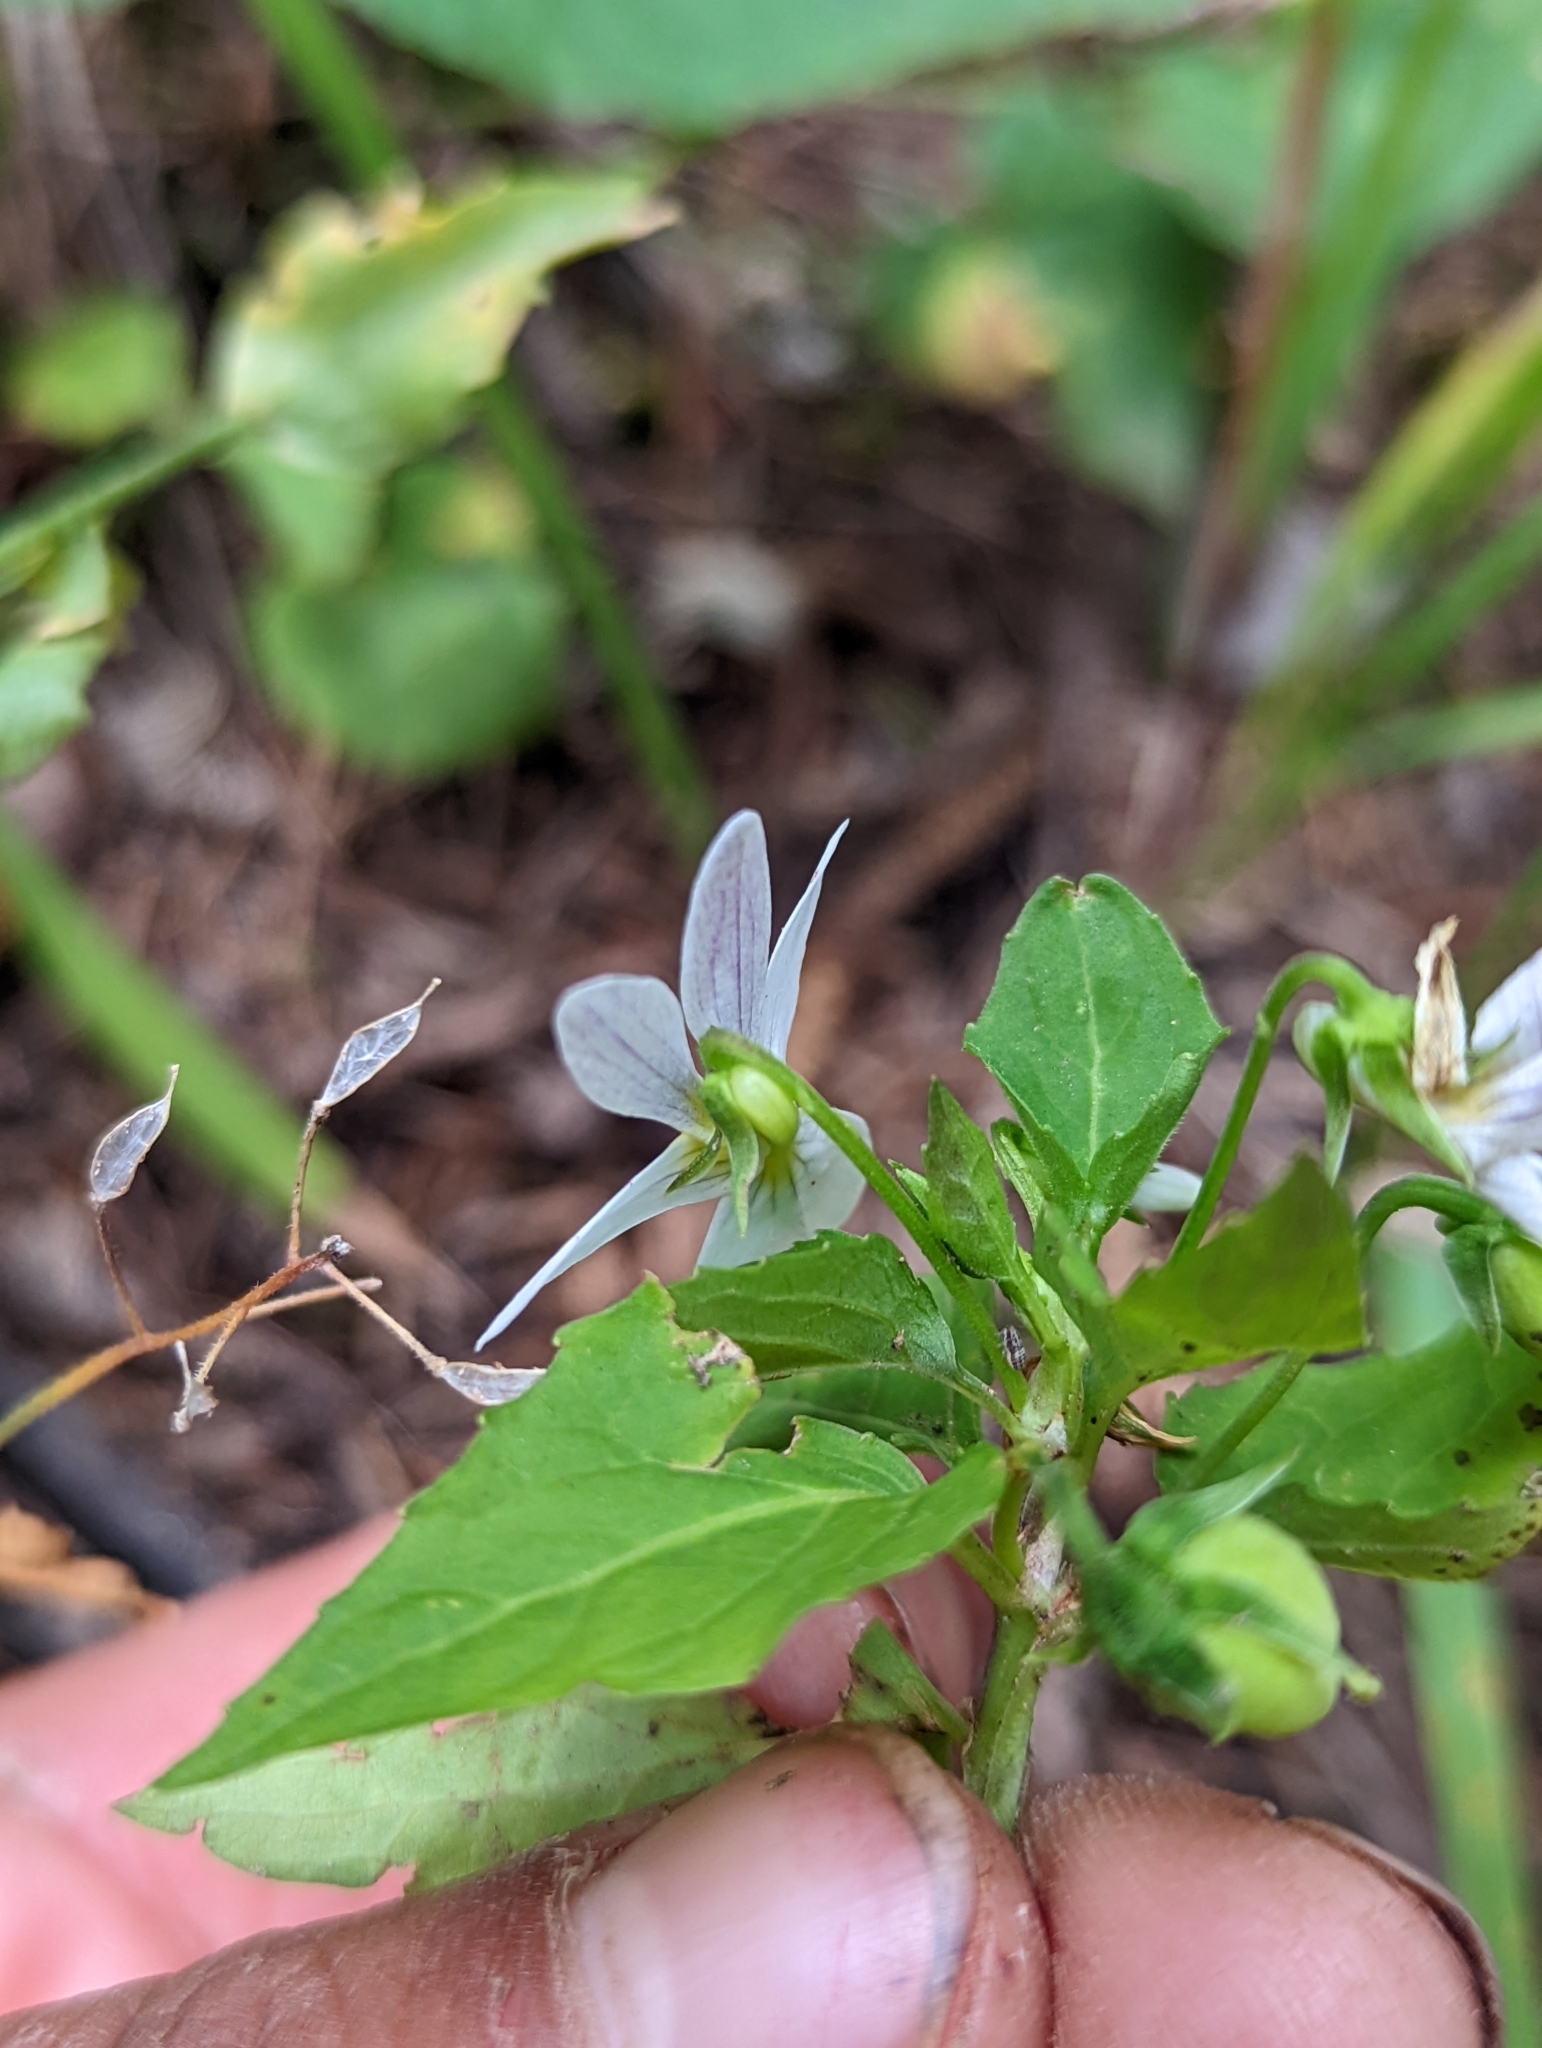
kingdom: Plantae
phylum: Tracheophyta
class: Magnoliopsida
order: Malpighiales
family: Violaceae
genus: Viola
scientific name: Viola canadensis
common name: Canada violet
